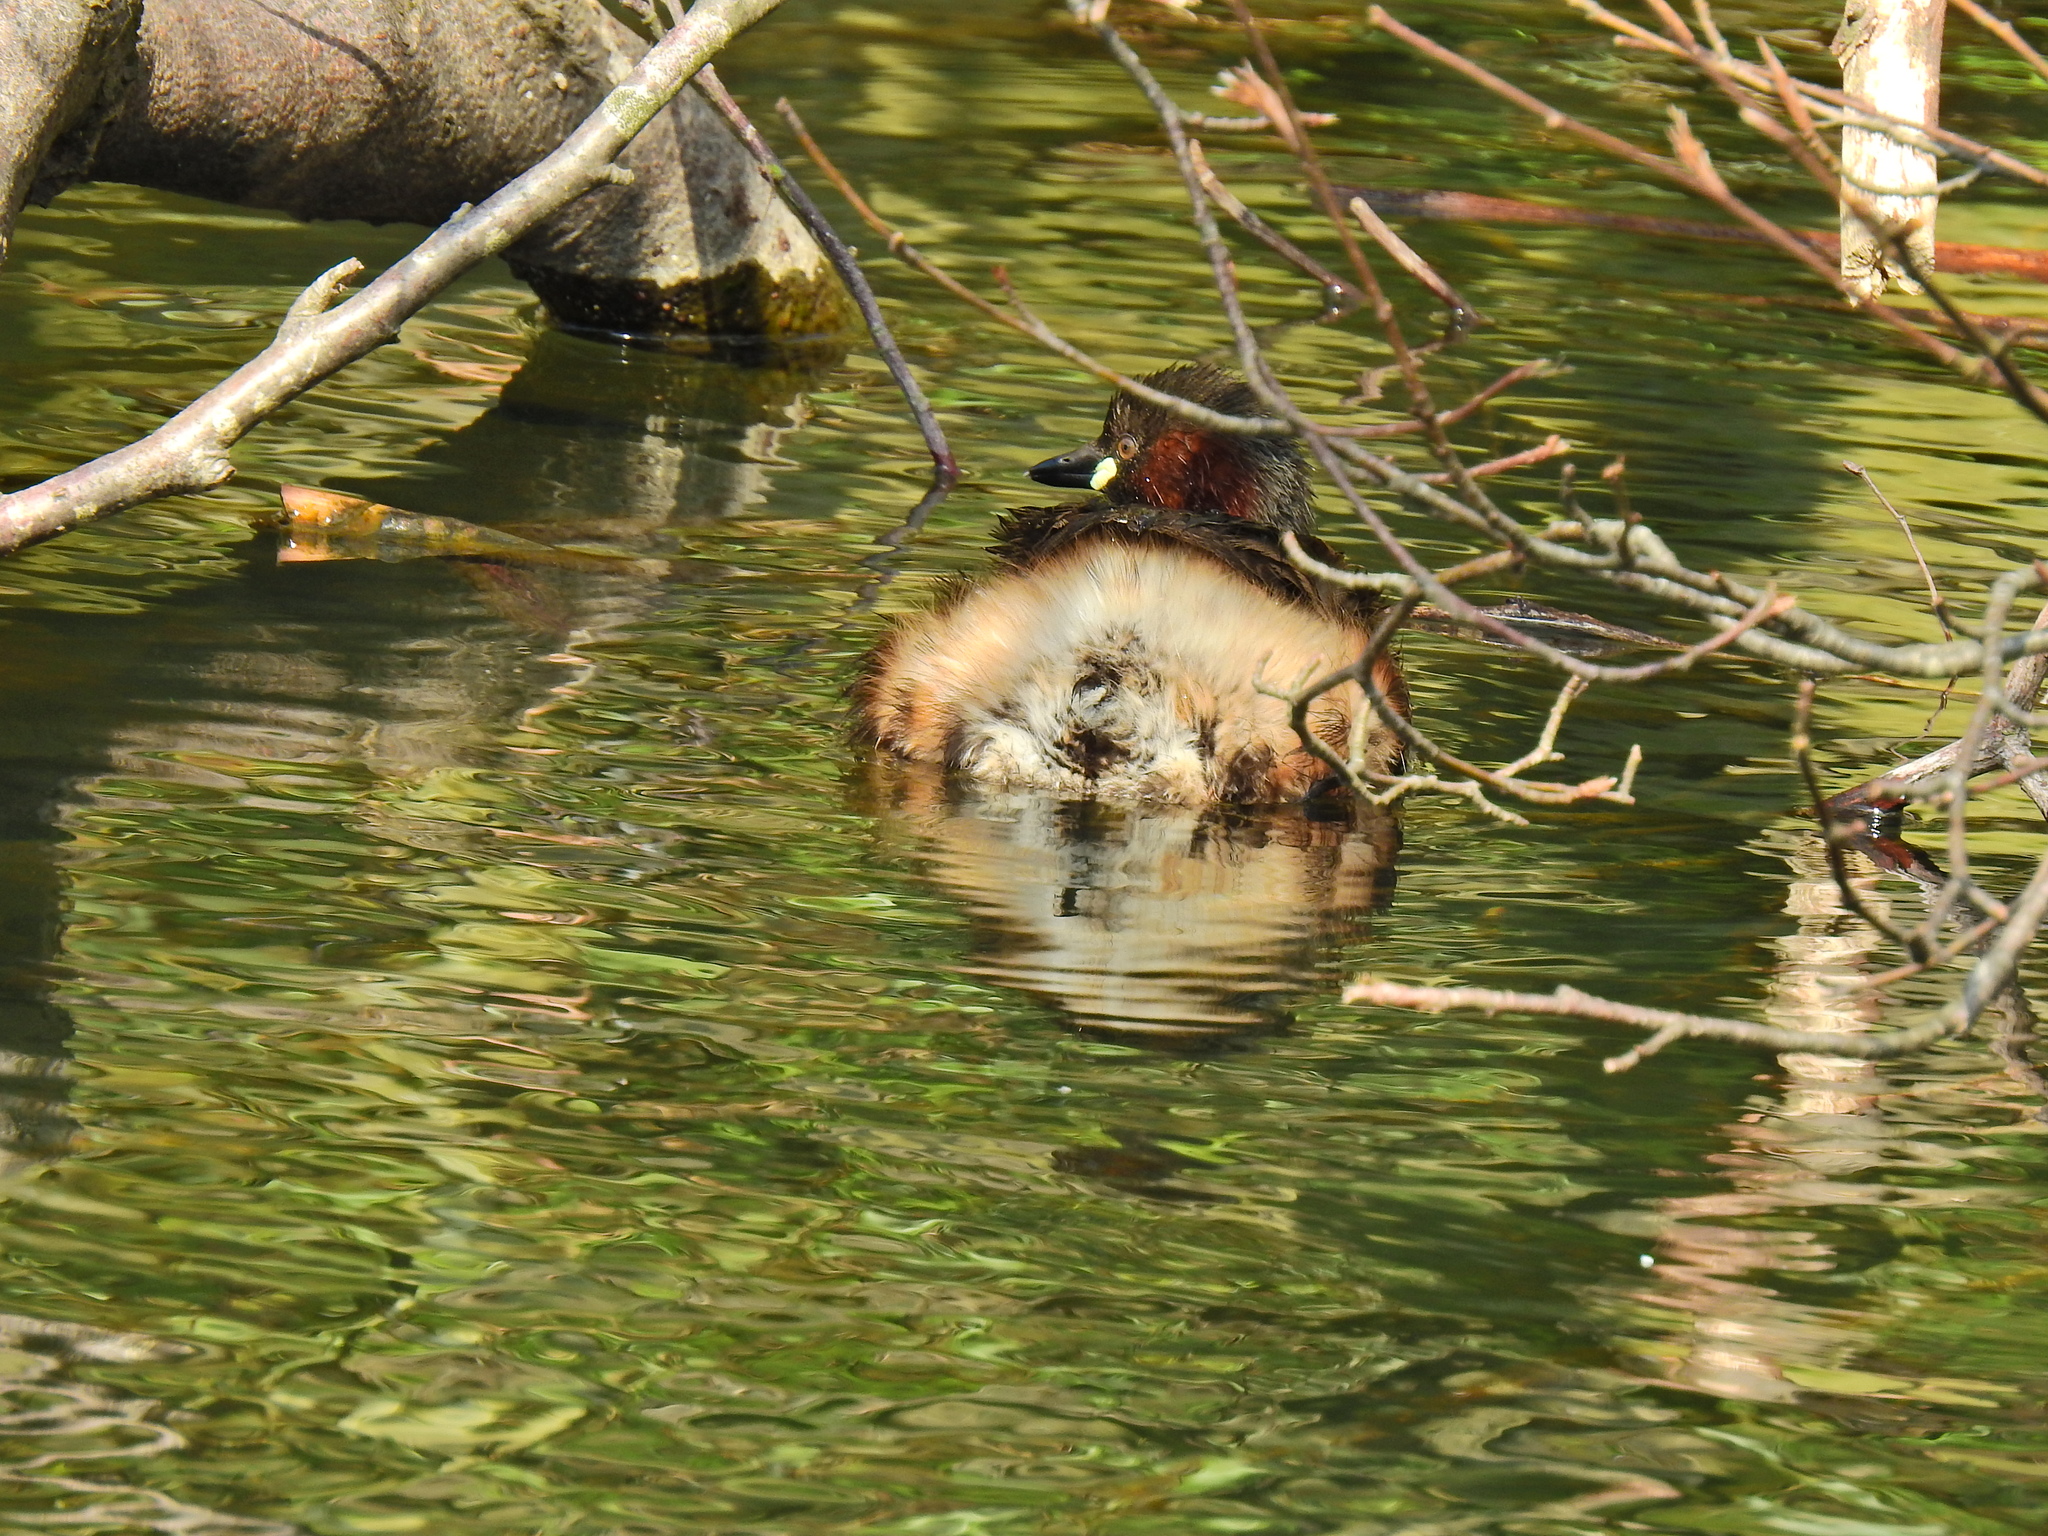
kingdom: Animalia
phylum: Chordata
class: Aves
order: Podicipediformes
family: Podicipedidae
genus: Tachybaptus
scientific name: Tachybaptus ruficollis
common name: Little grebe
